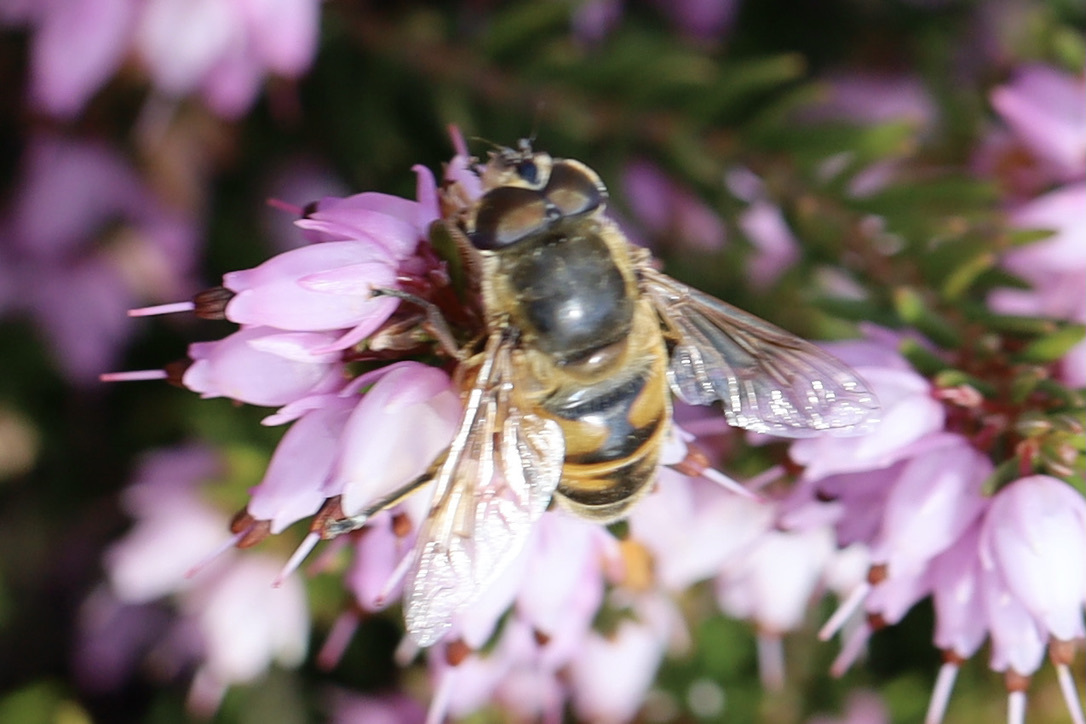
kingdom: Animalia
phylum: Arthropoda
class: Insecta
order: Diptera
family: Syrphidae
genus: Eristalis
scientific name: Eristalis tenax
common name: Drone fly
